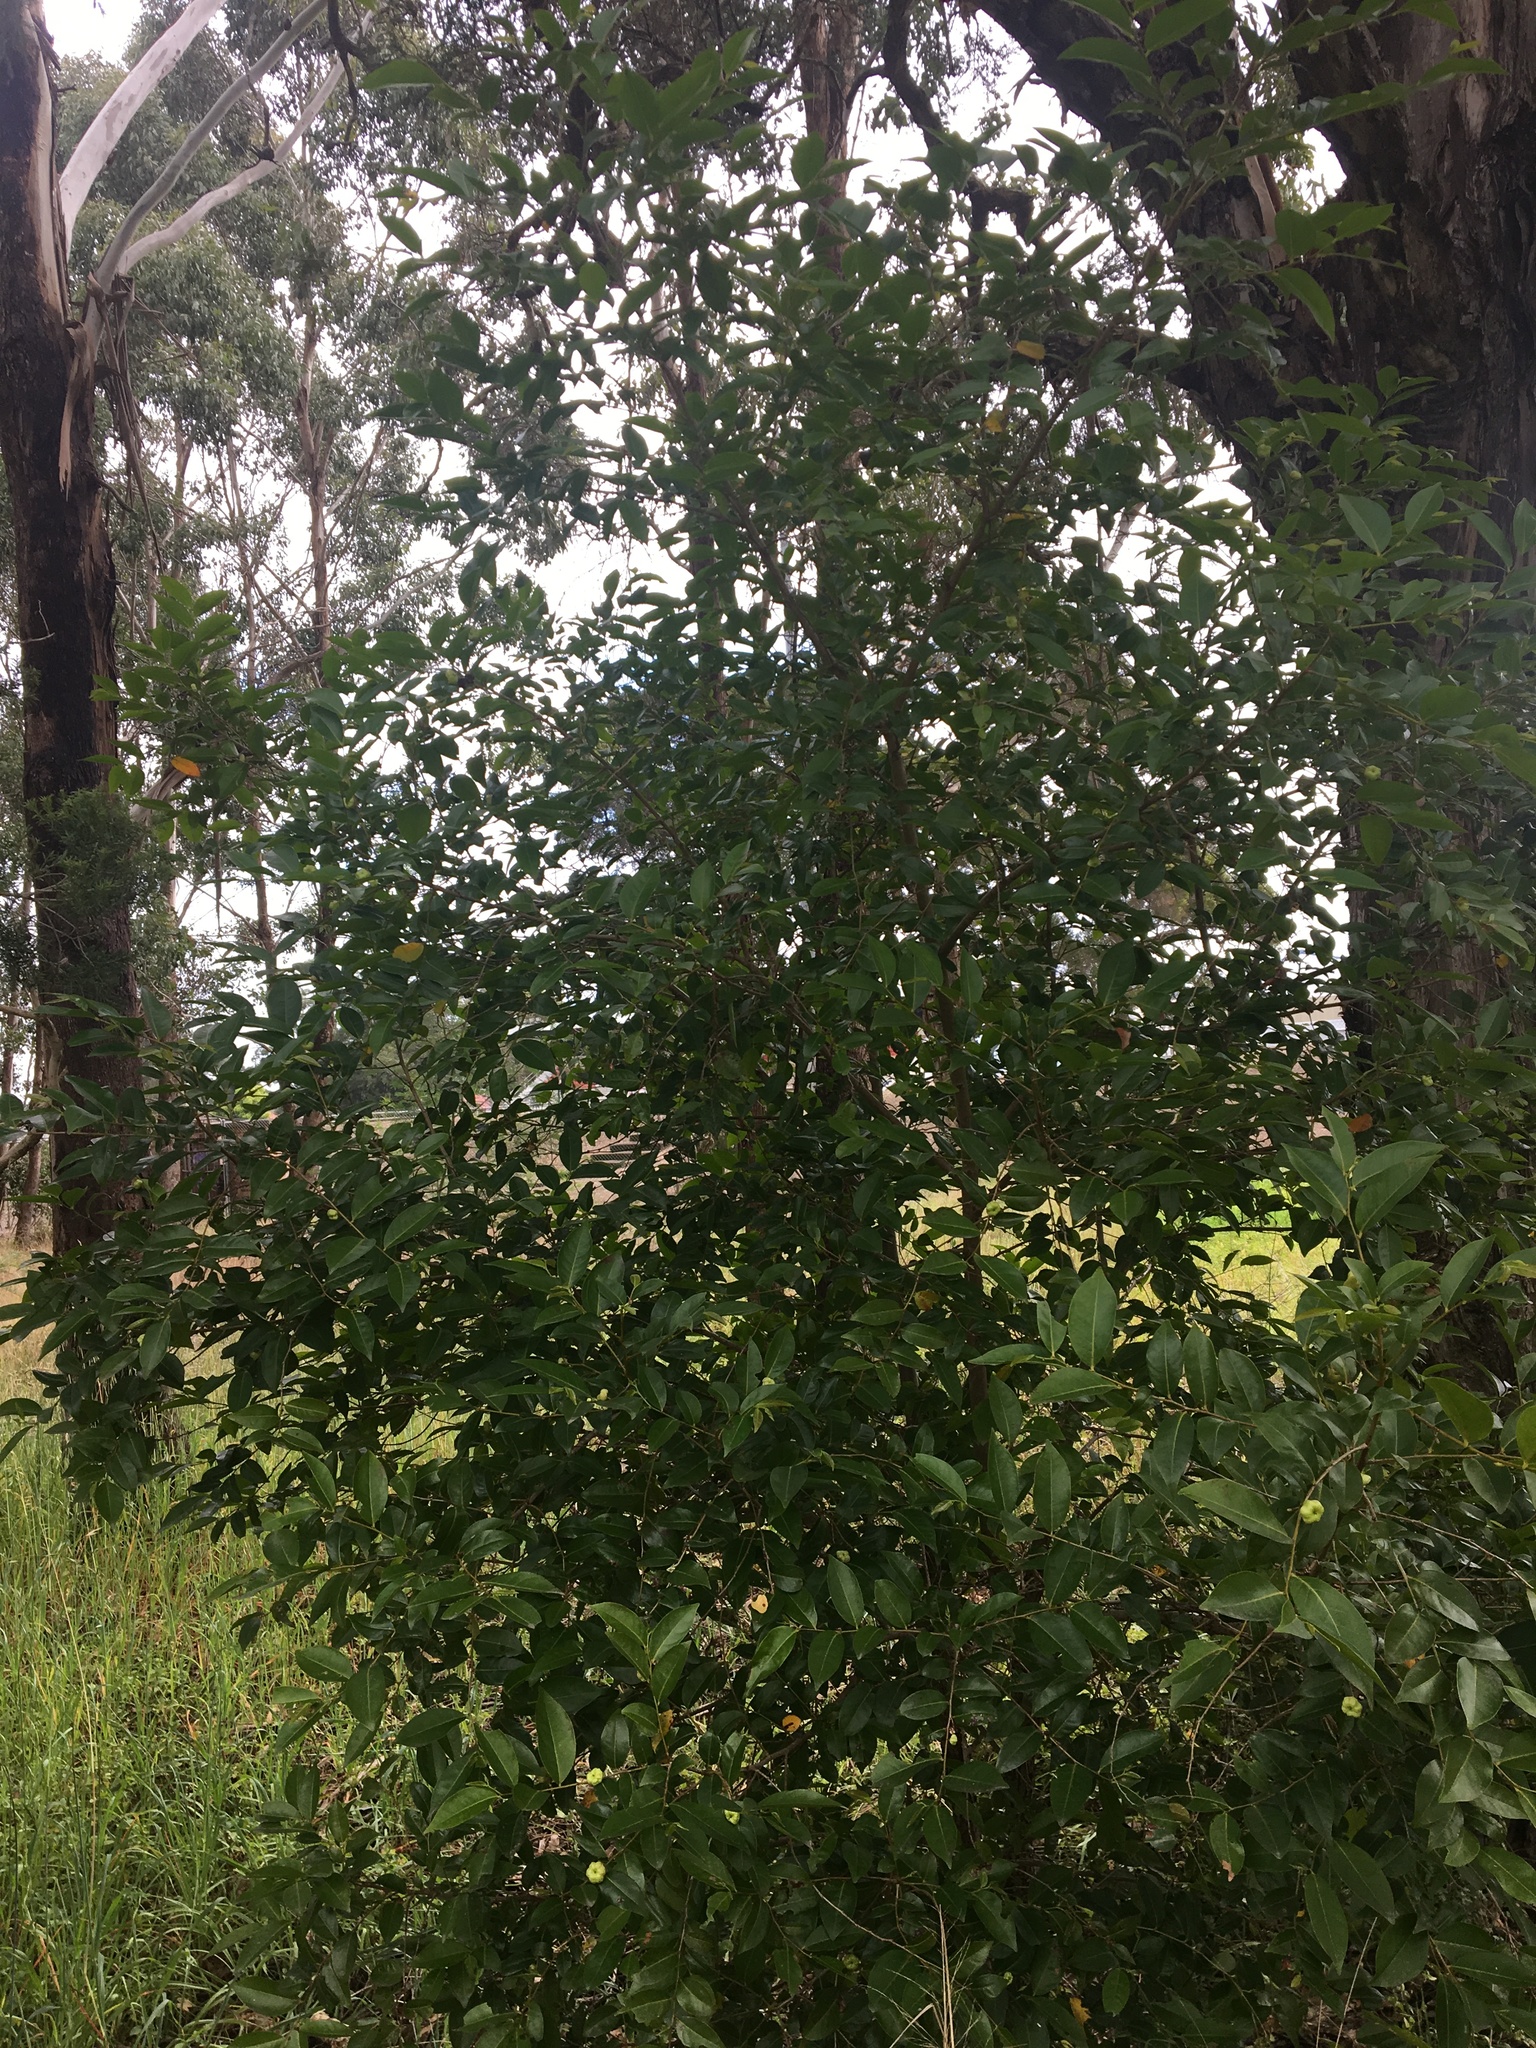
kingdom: Plantae
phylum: Tracheophyta
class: Magnoliopsida
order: Malpighiales
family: Phyllanthaceae
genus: Glochidion
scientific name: Glochidion ferdinandi
